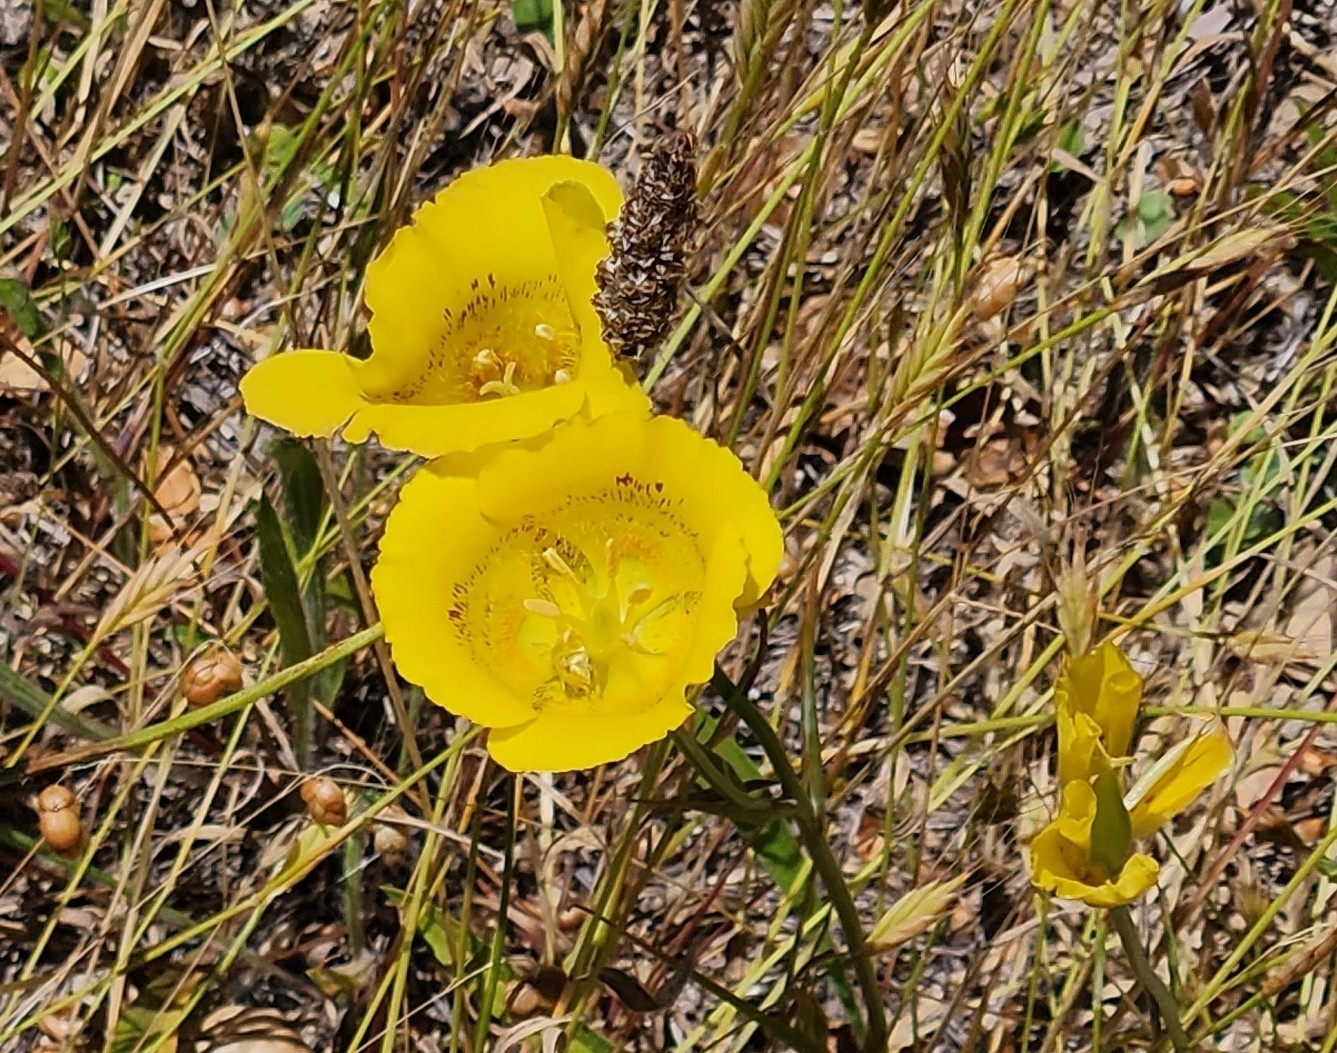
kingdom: Plantae
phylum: Tracheophyta
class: Liliopsida
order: Liliales
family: Liliaceae
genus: Calochortus
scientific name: Calochortus luteus
